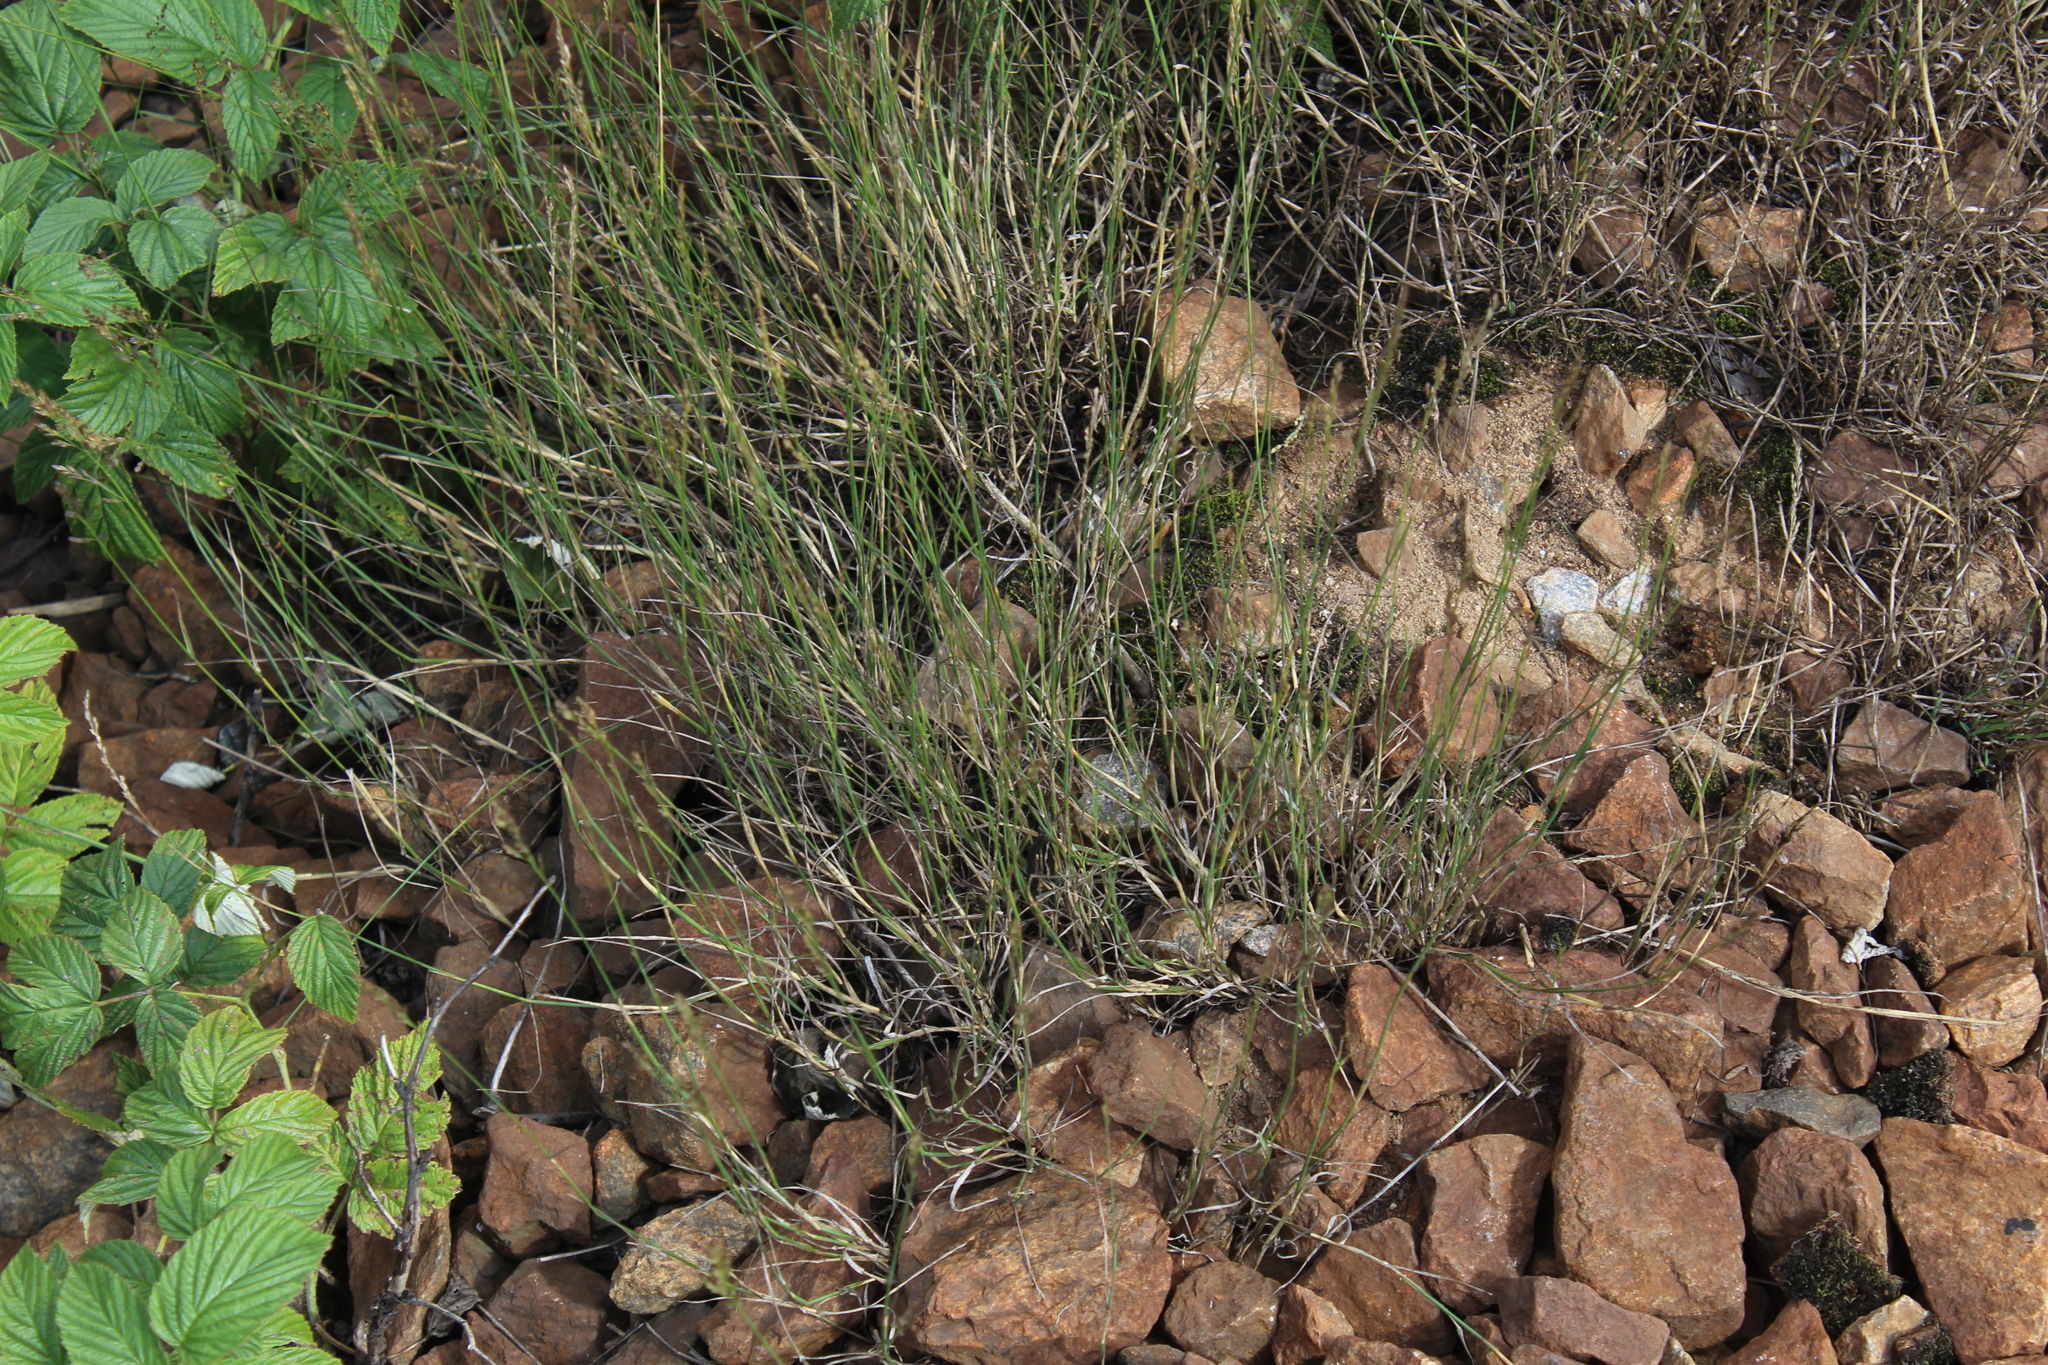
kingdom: Plantae
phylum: Tracheophyta
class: Liliopsida
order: Poales
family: Poaceae
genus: Poa
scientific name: Poa compressa
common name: Canada bluegrass
